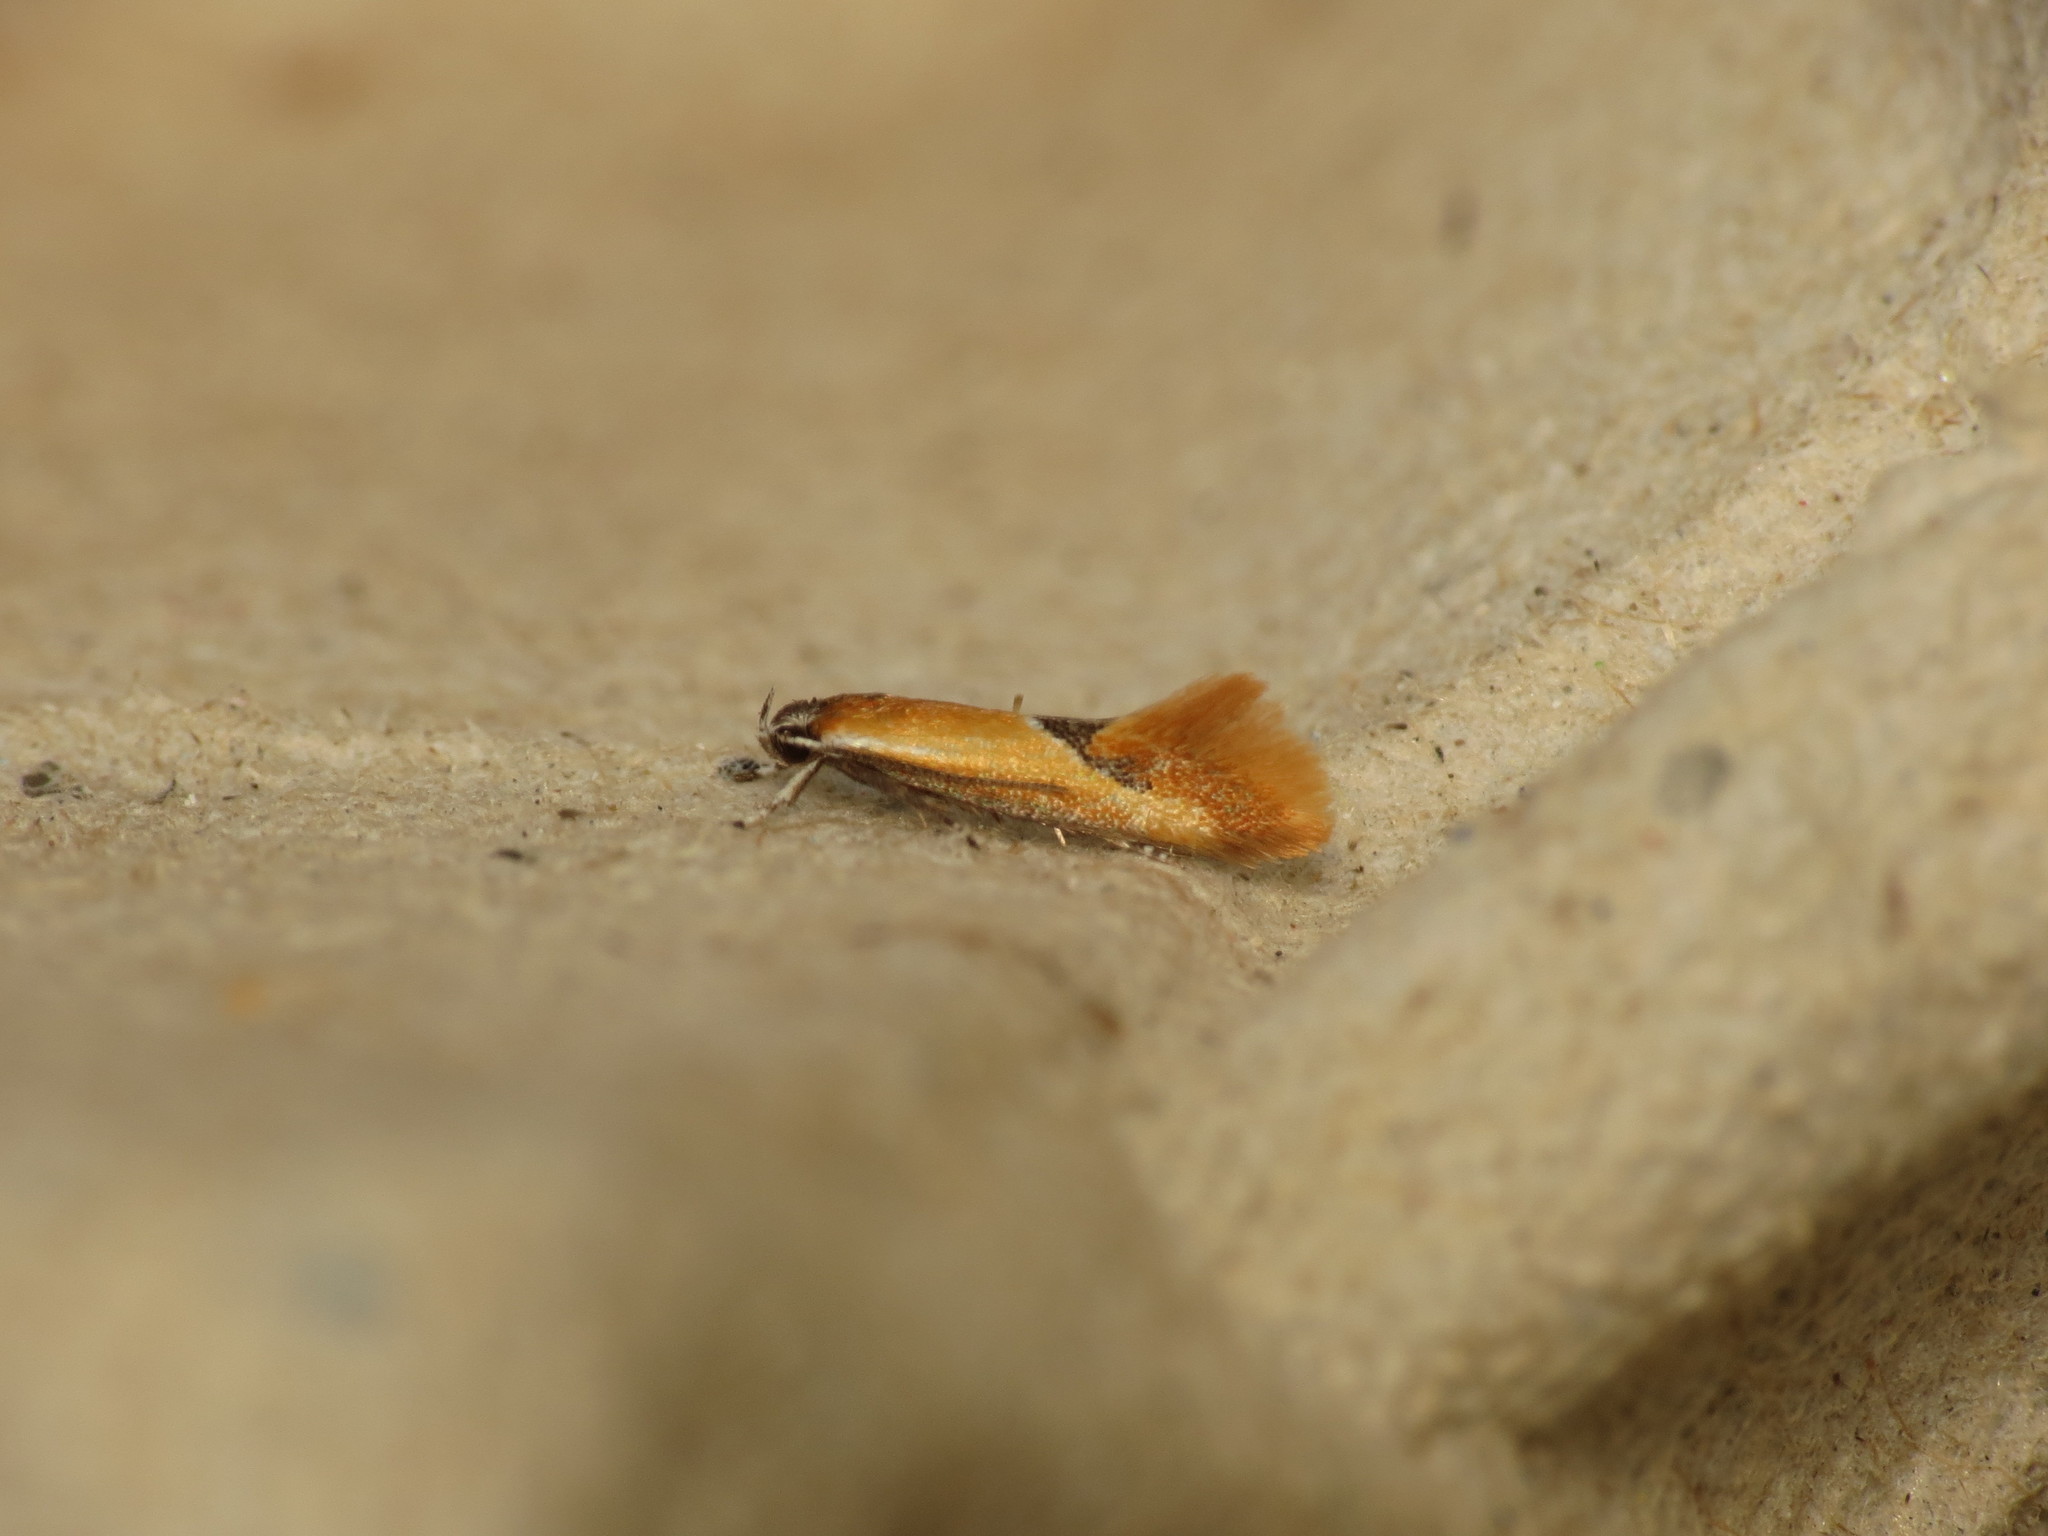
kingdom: Animalia
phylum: Arthropoda
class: Insecta
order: Lepidoptera
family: Oecophoridae
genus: Batia
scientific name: Batia lunaris
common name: Moth
